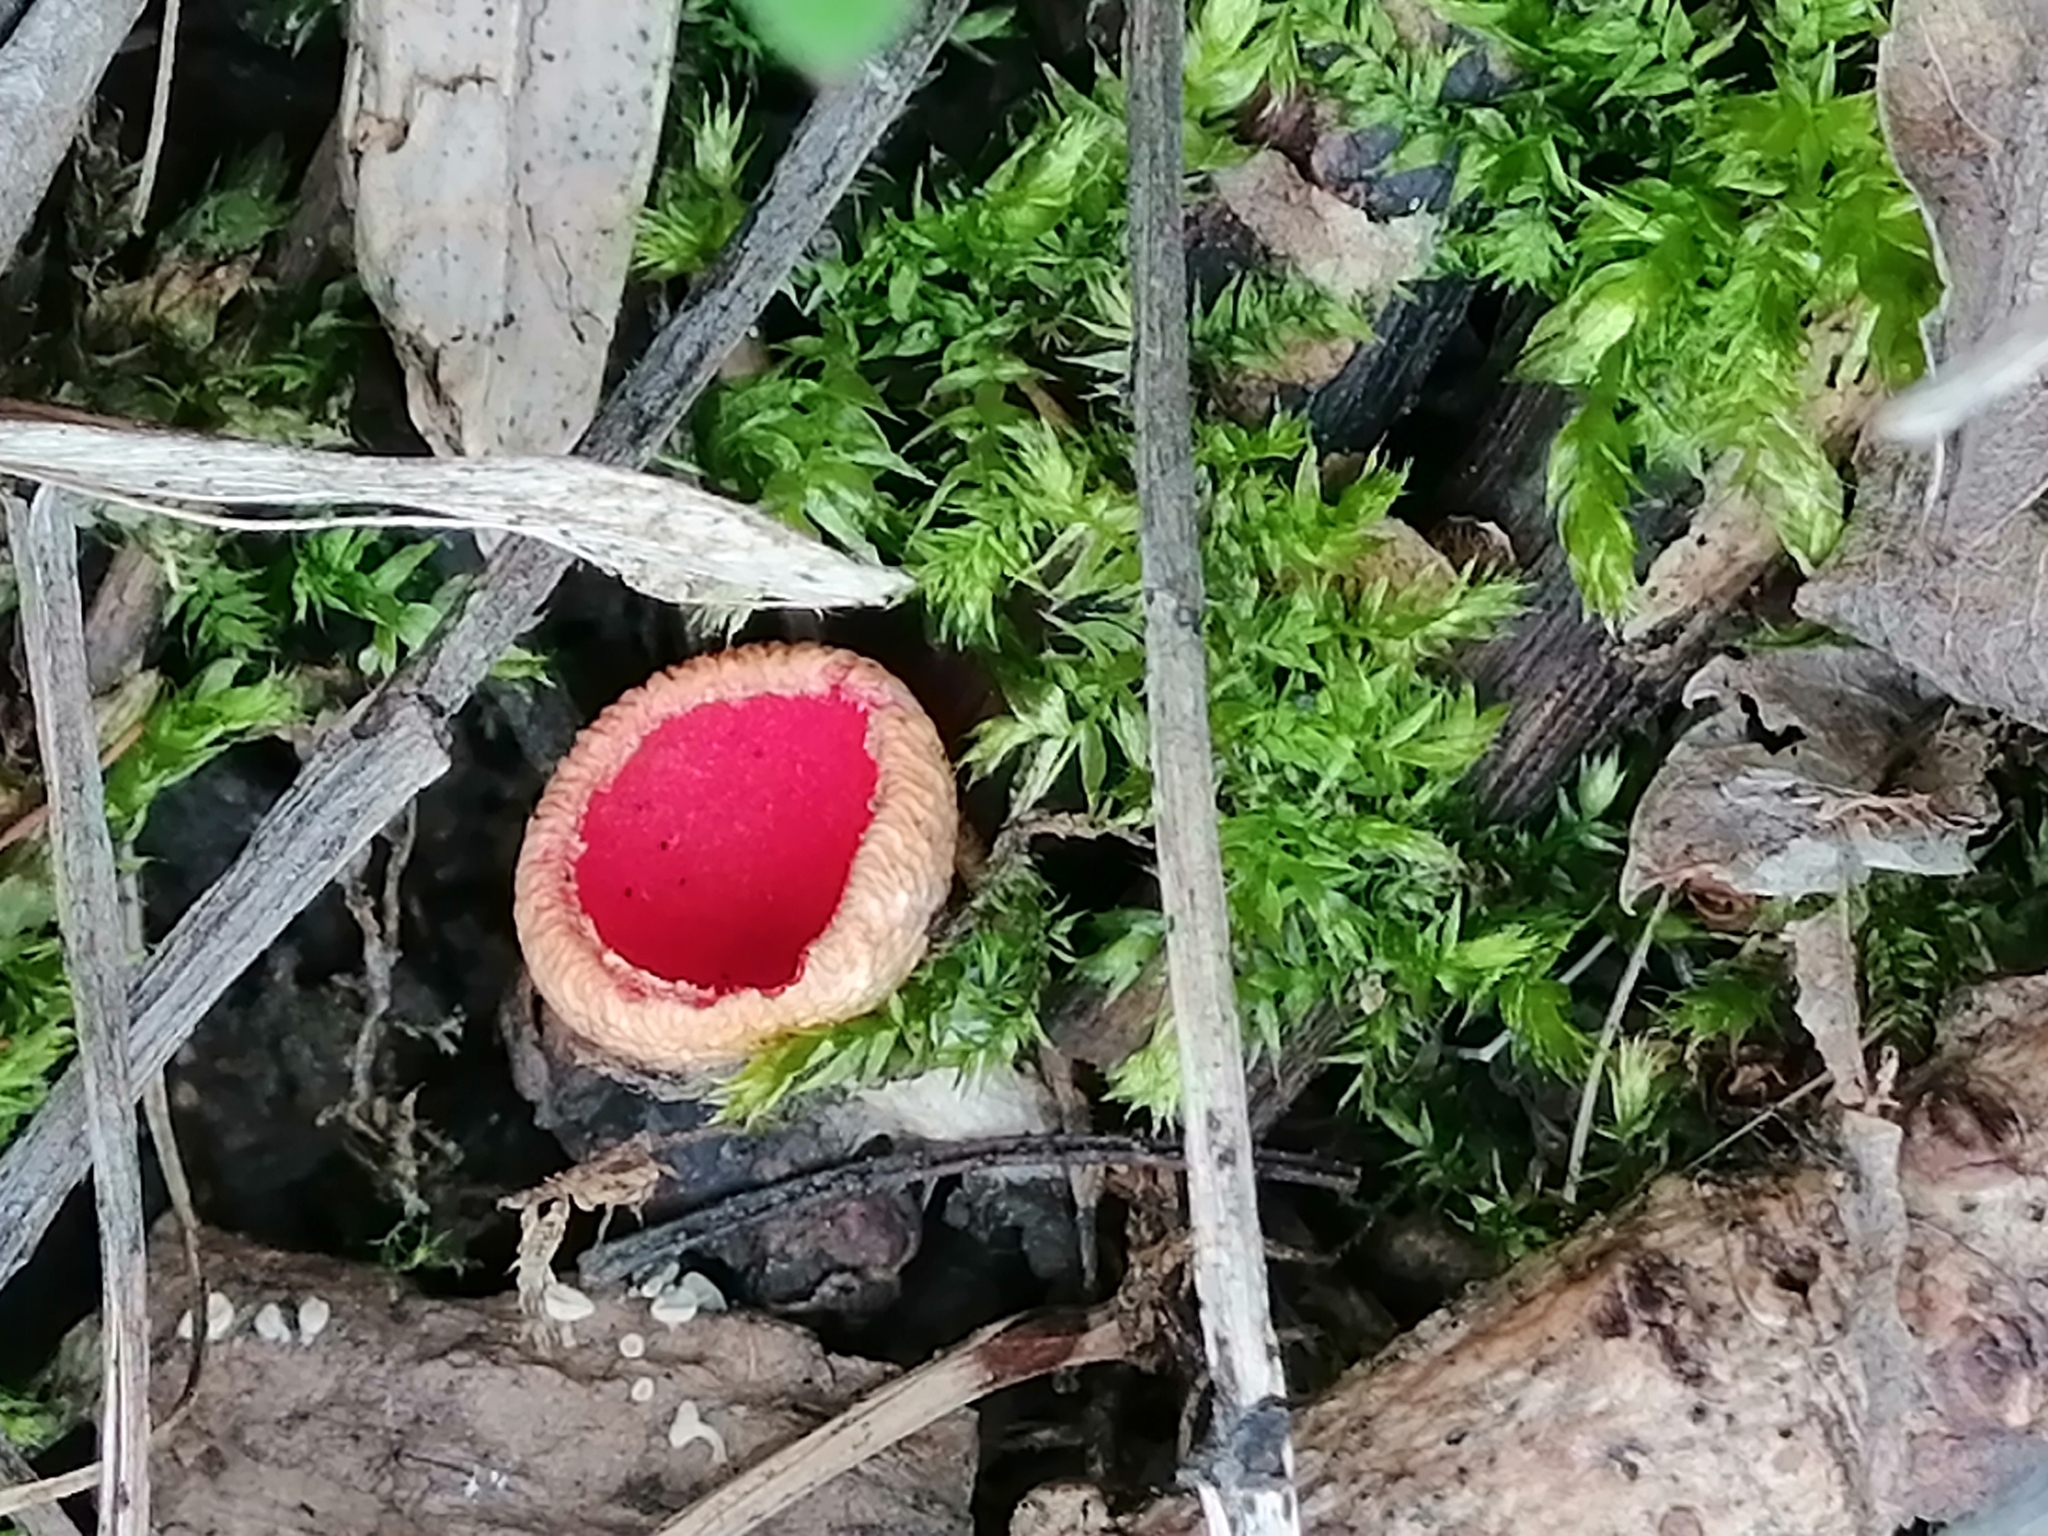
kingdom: Fungi
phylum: Ascomycota
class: Pezizomycetes
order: Pezizales
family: Sarcoscyphaceae
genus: Sarcoscypha
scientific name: Sarcoscypha
